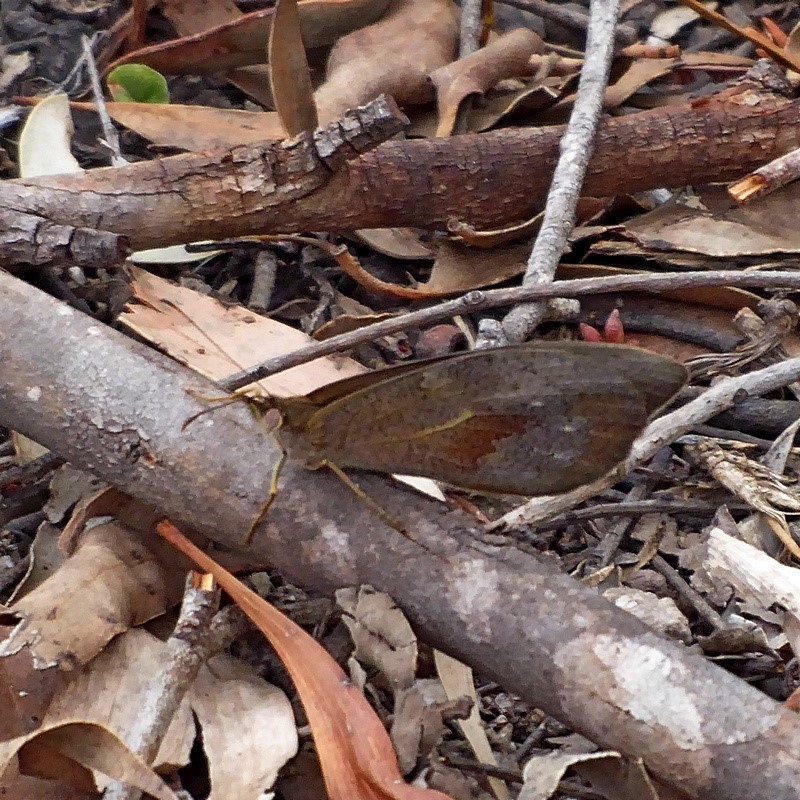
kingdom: Animalia
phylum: Arthropoda
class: Insecta
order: Lepidoptera
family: Nymphalidae
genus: Heteronympha
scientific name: Heteronympha merope
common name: Common brown
